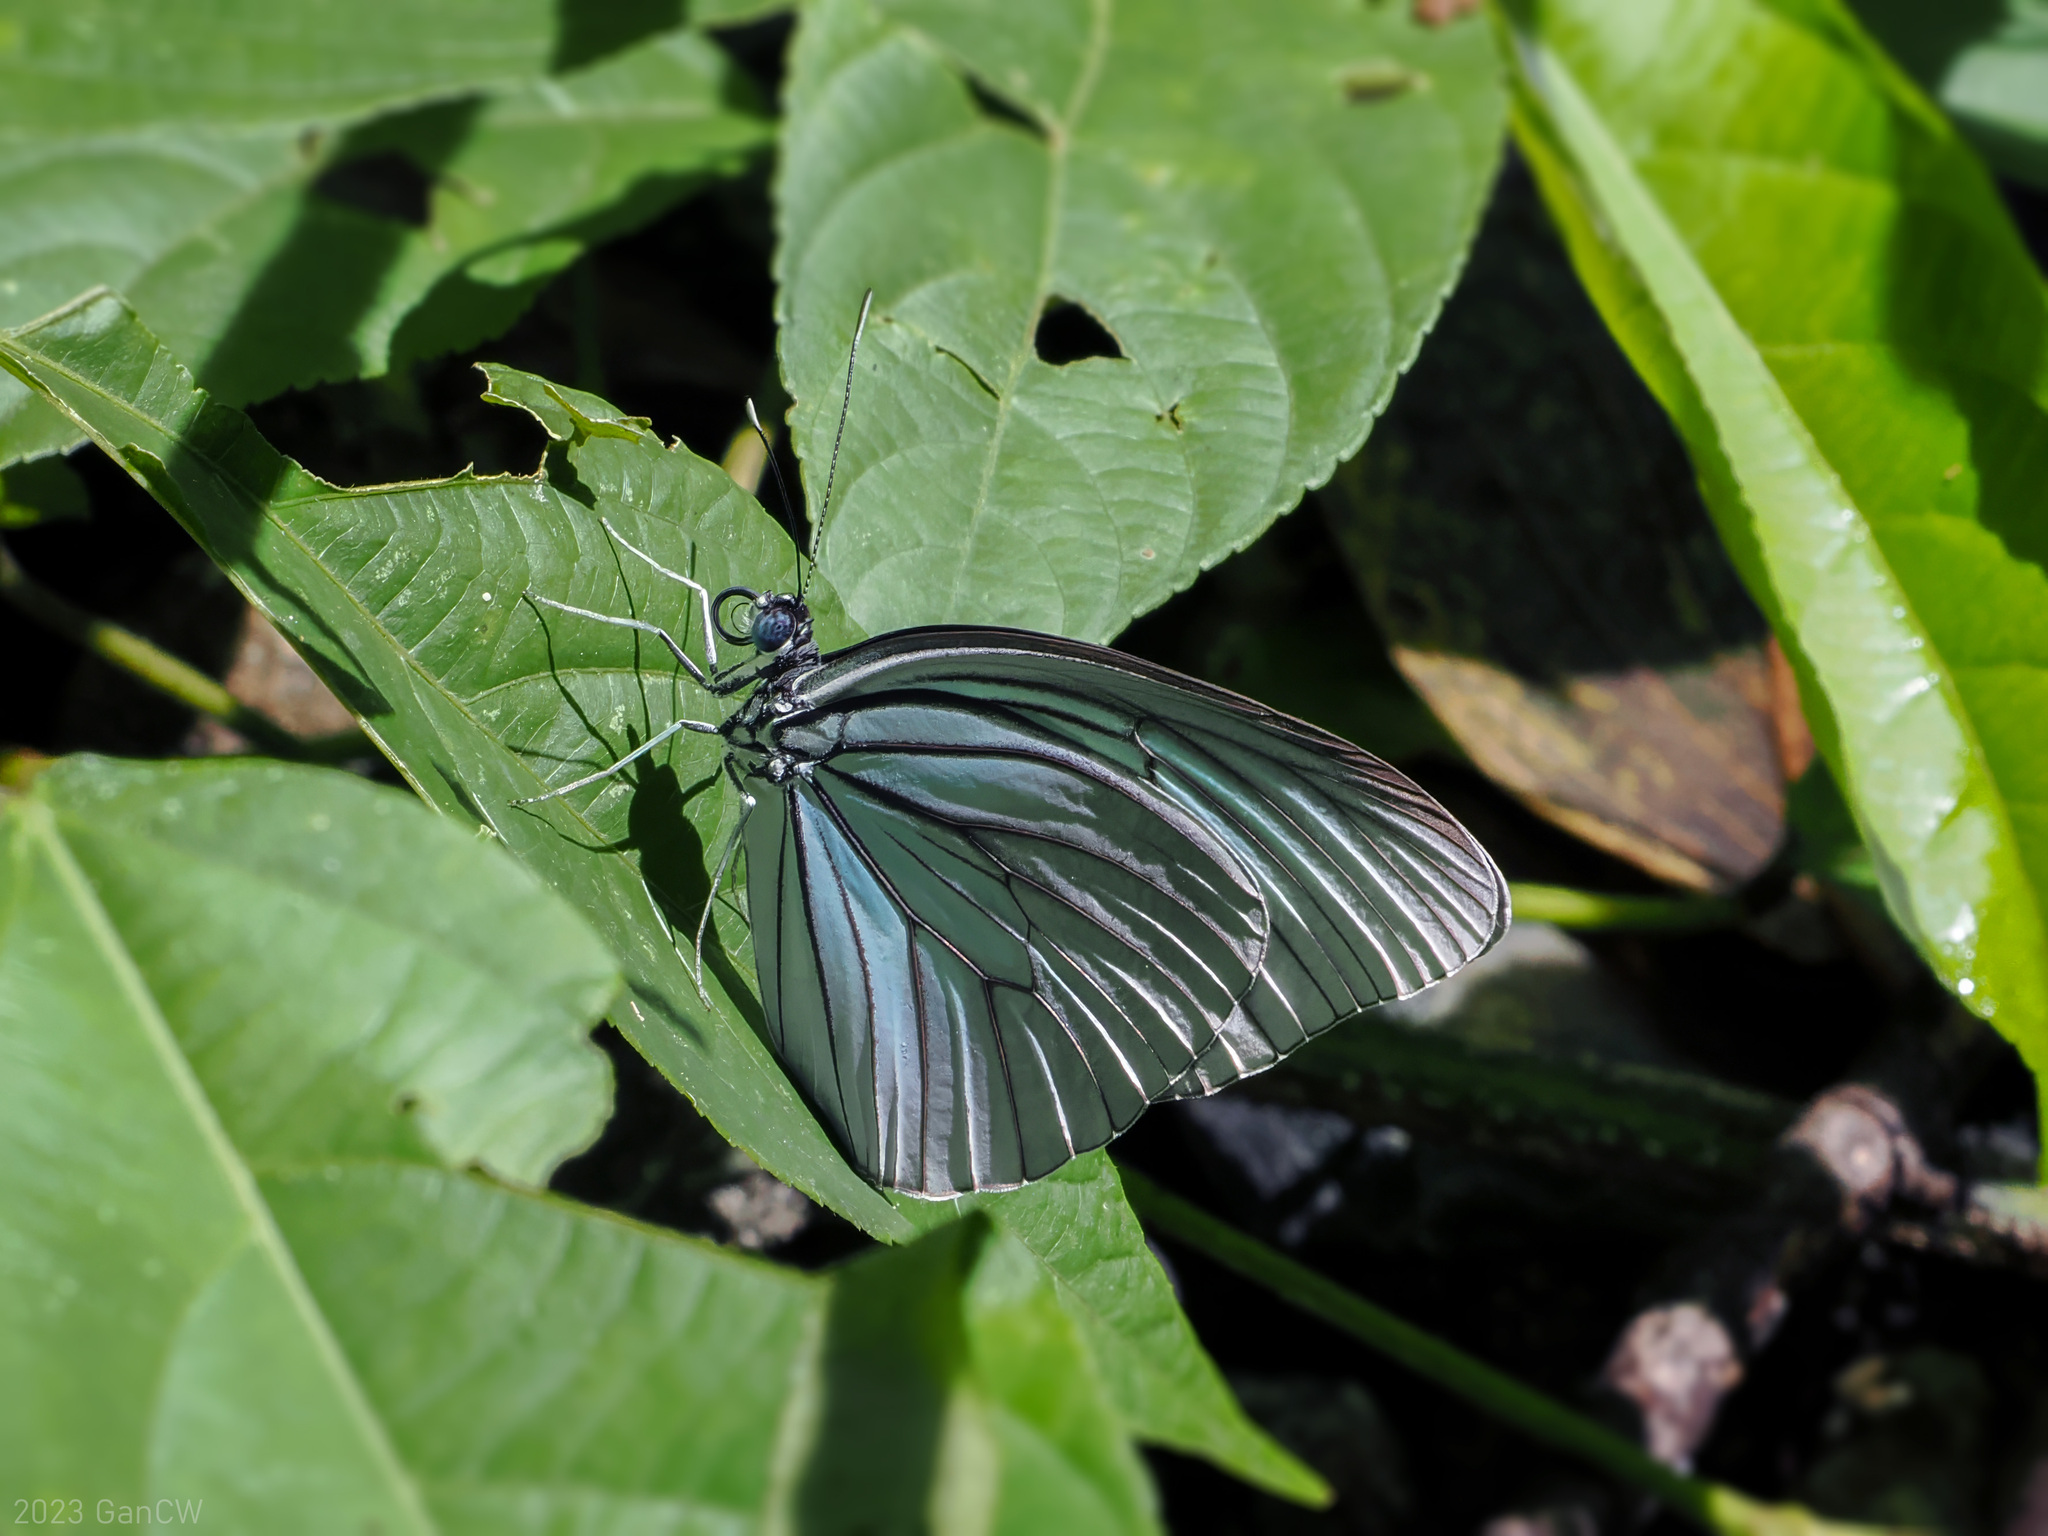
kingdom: Animalia
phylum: Arthropoda
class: Insecta
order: Lepidoptera
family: Pieridae
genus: Pareronia
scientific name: Pareronia tritaea
